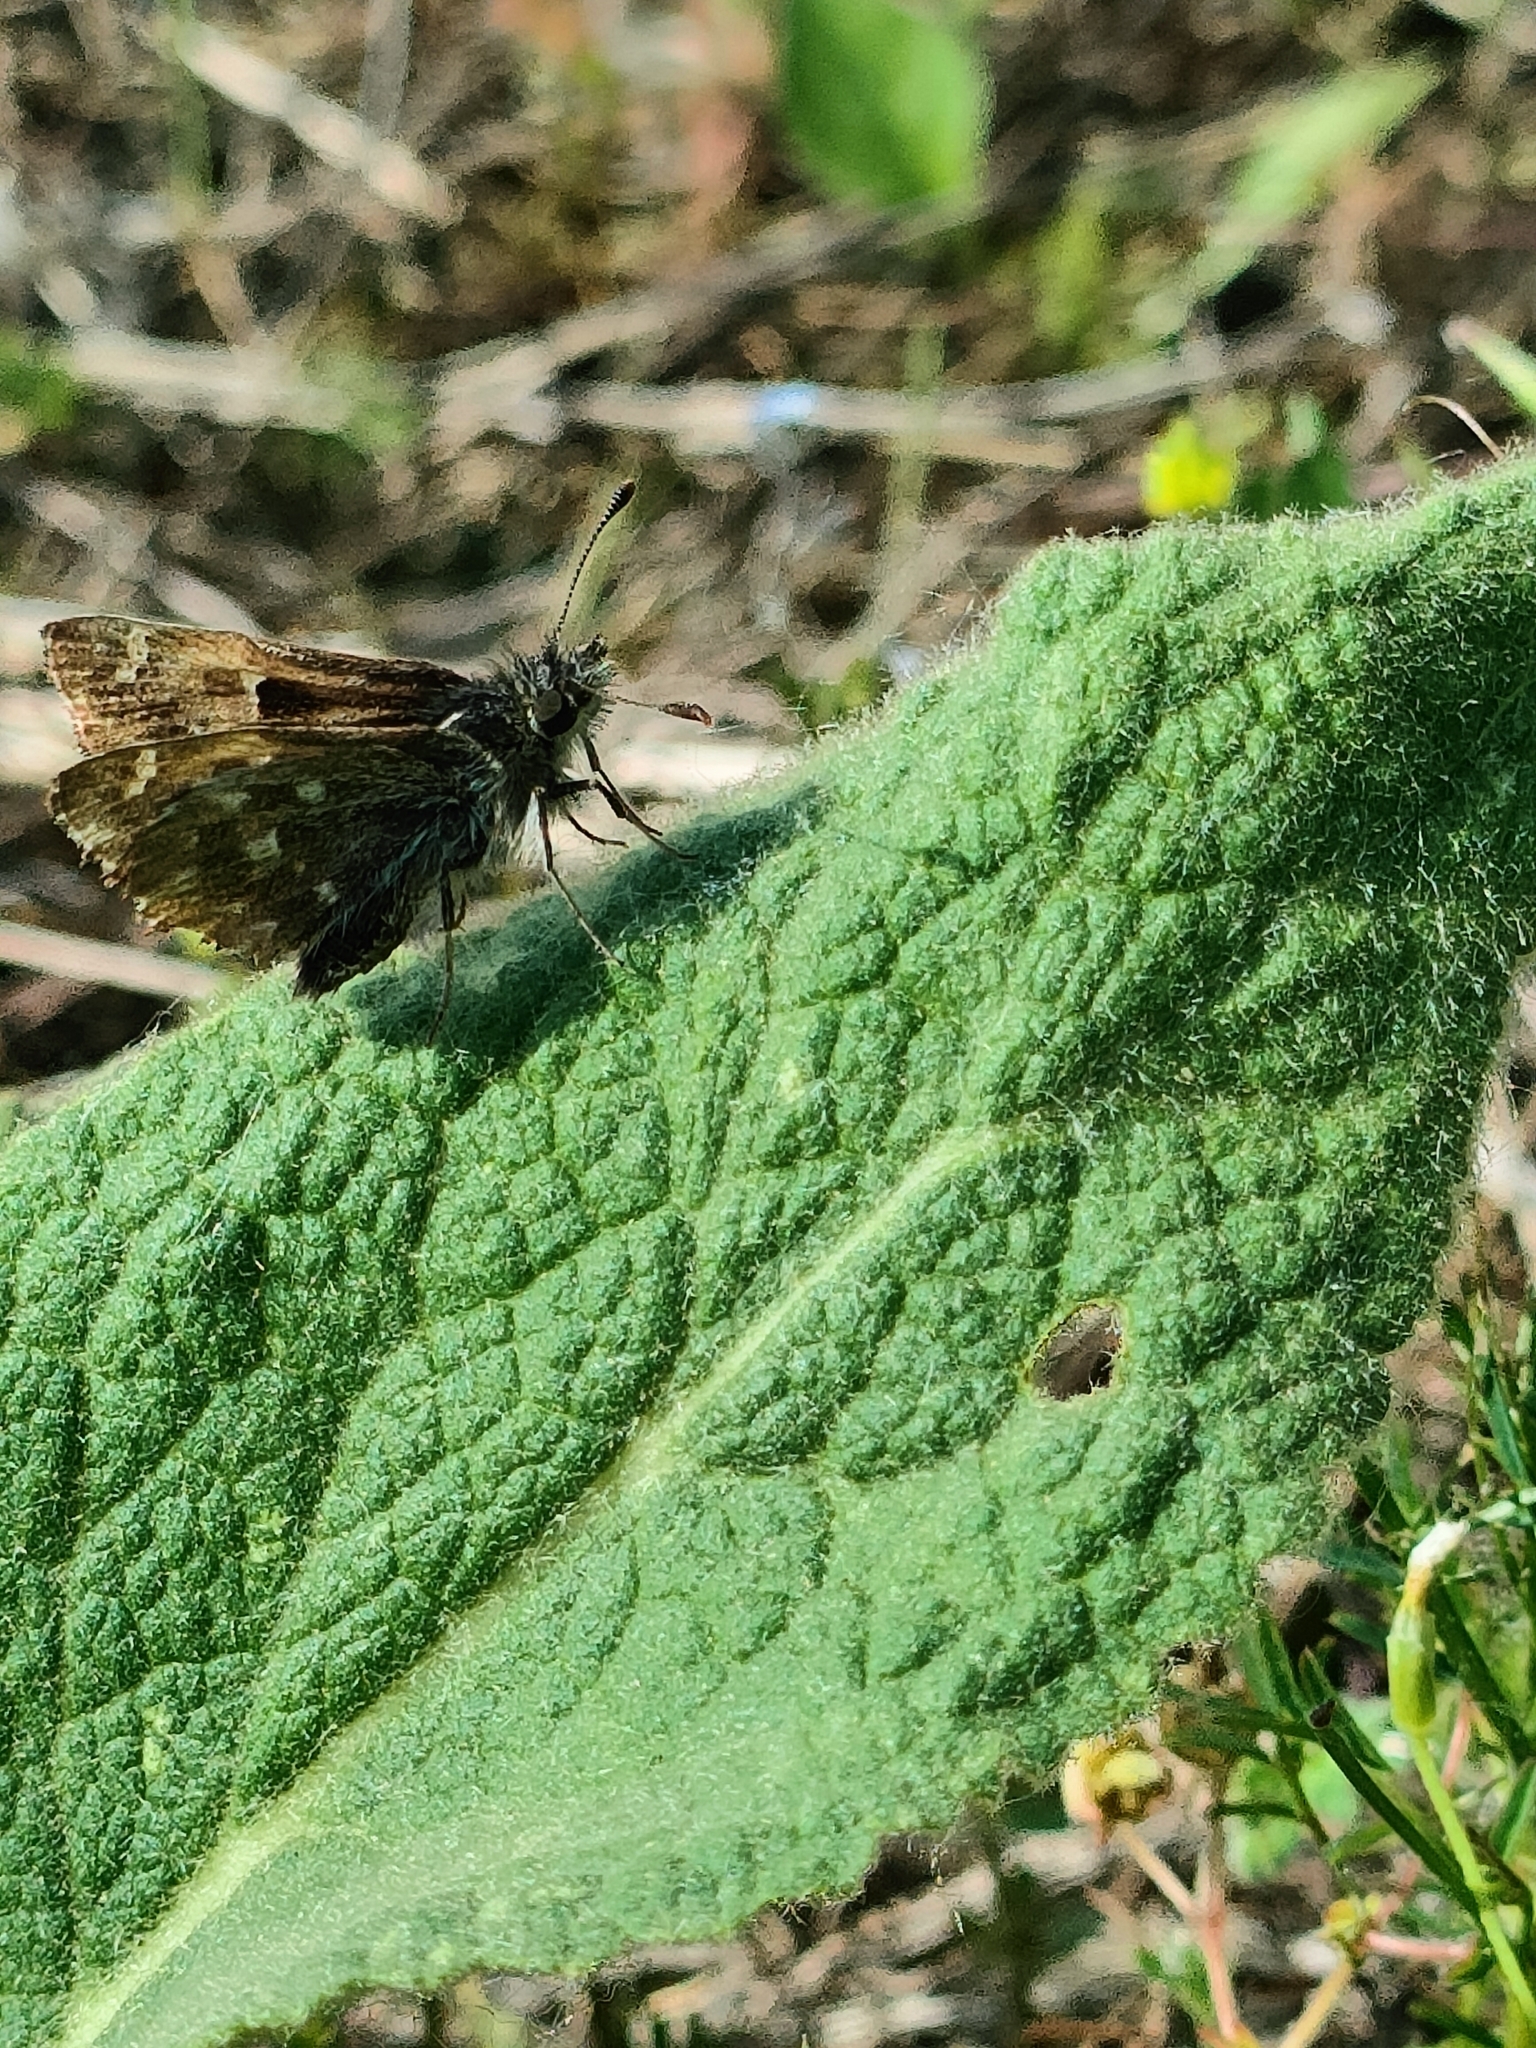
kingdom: Animalia
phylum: Arthropoda
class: Insecta
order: Lepidoptera
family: Hesperiidae
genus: Carcharodus
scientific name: Carcharodus alceae
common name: Mallow skipper
